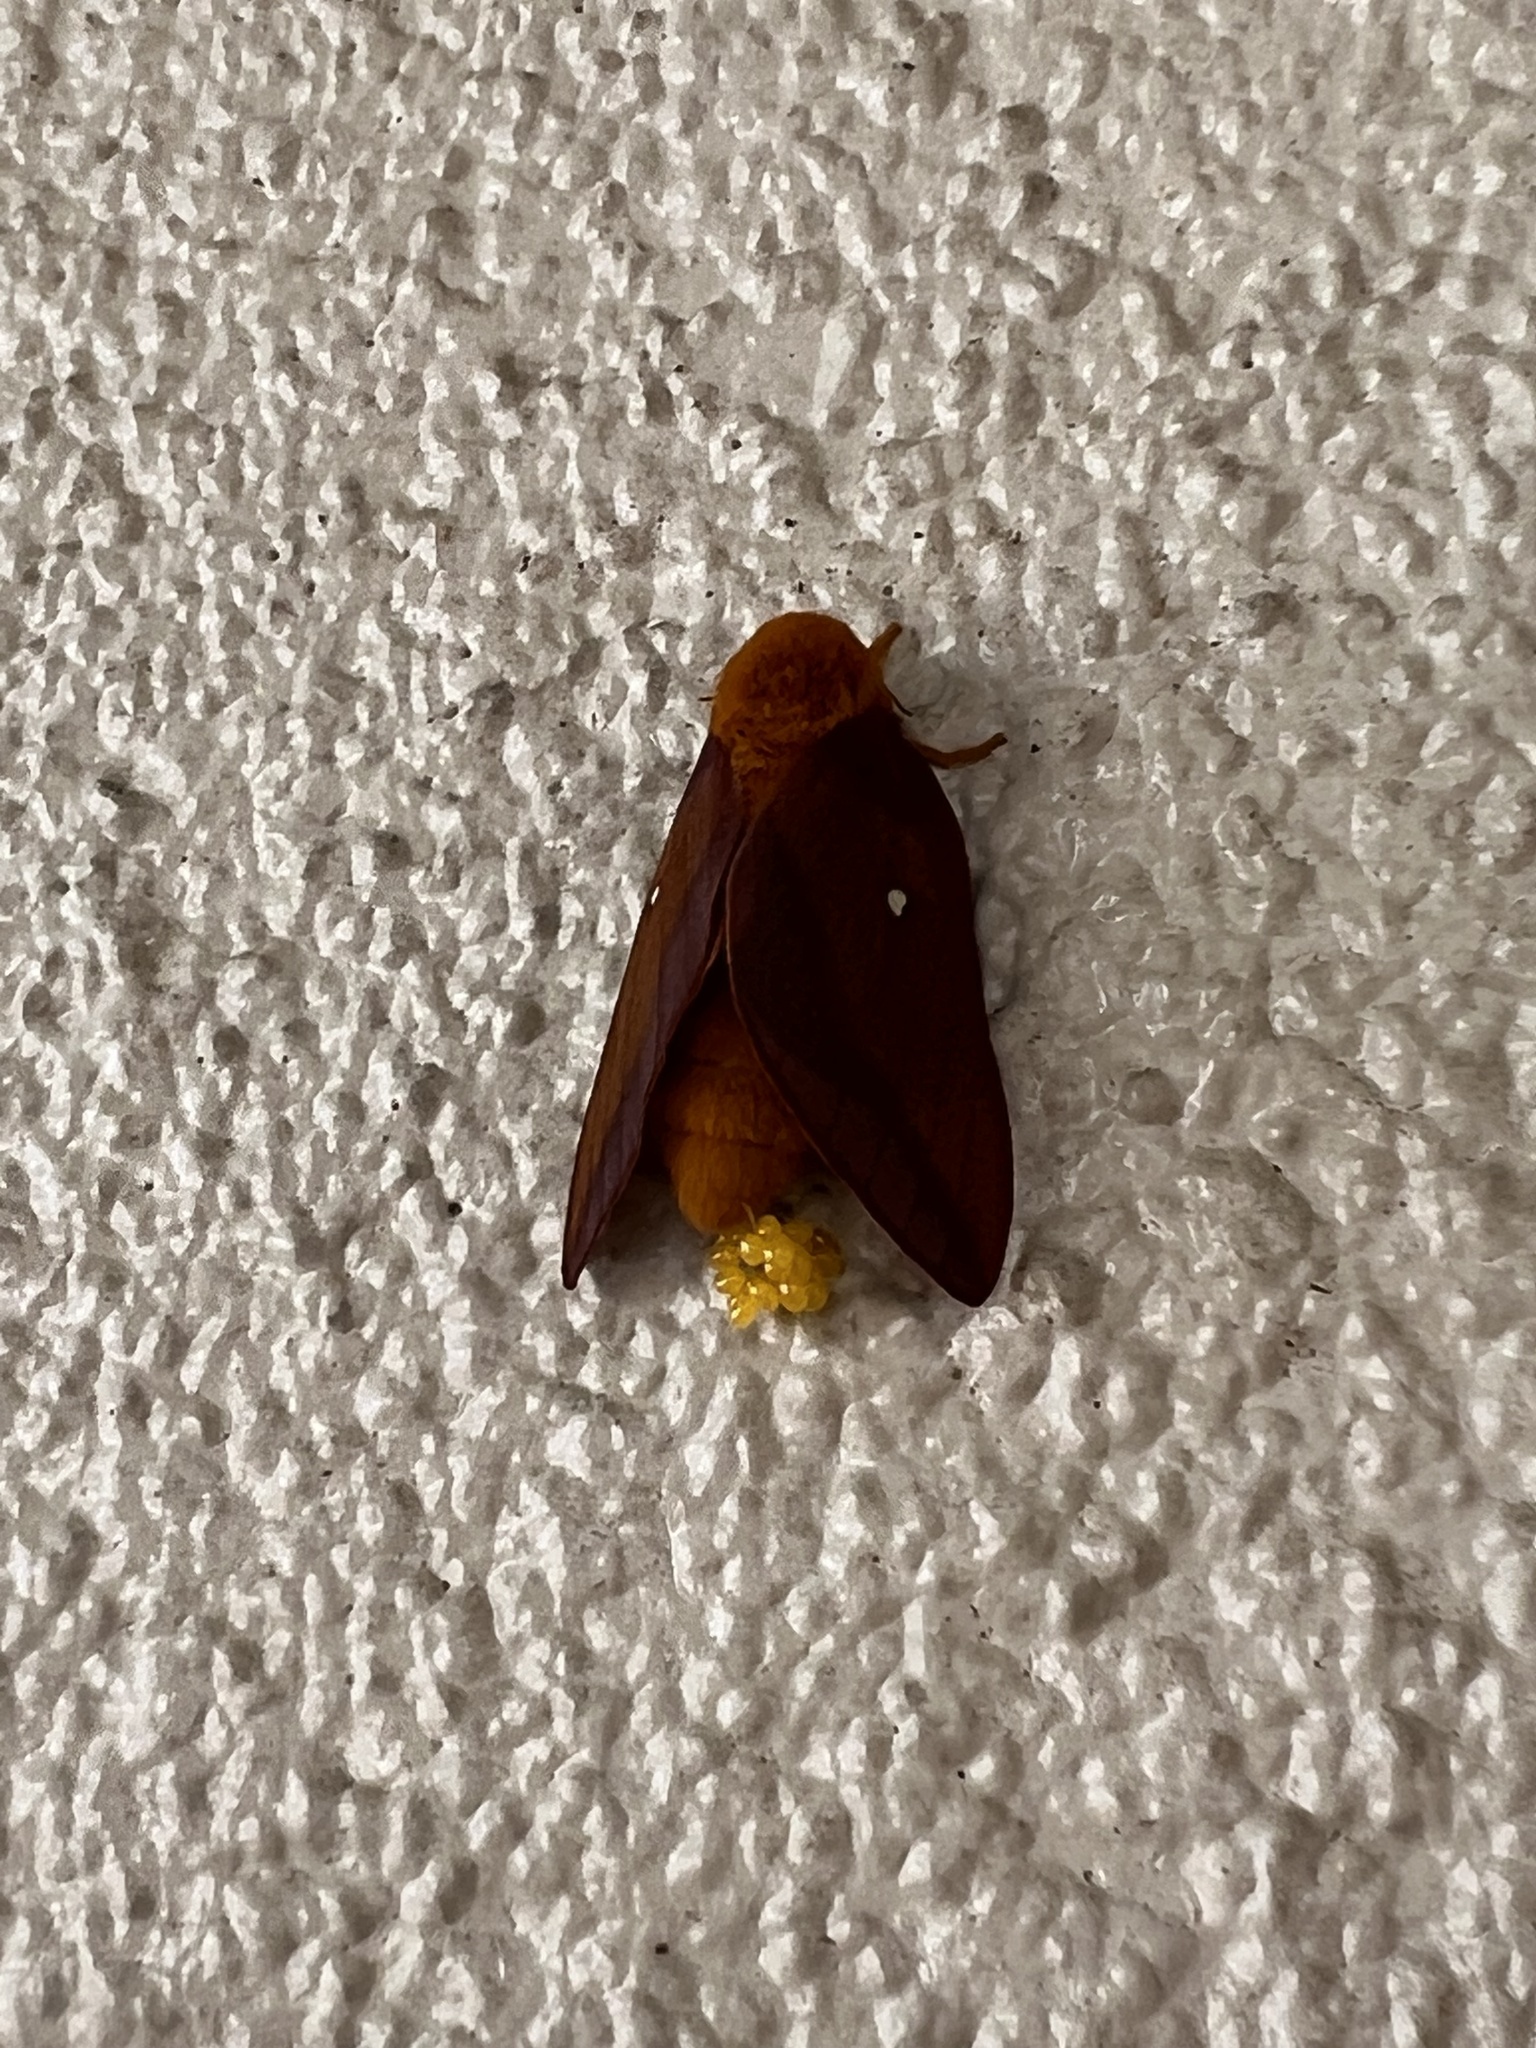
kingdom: Animalia
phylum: Arthropoda
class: Insecta
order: Lepidoptera
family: Saturniidae
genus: Anisota
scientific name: Anisota virginiensis
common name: Pink striped oakworm moth
